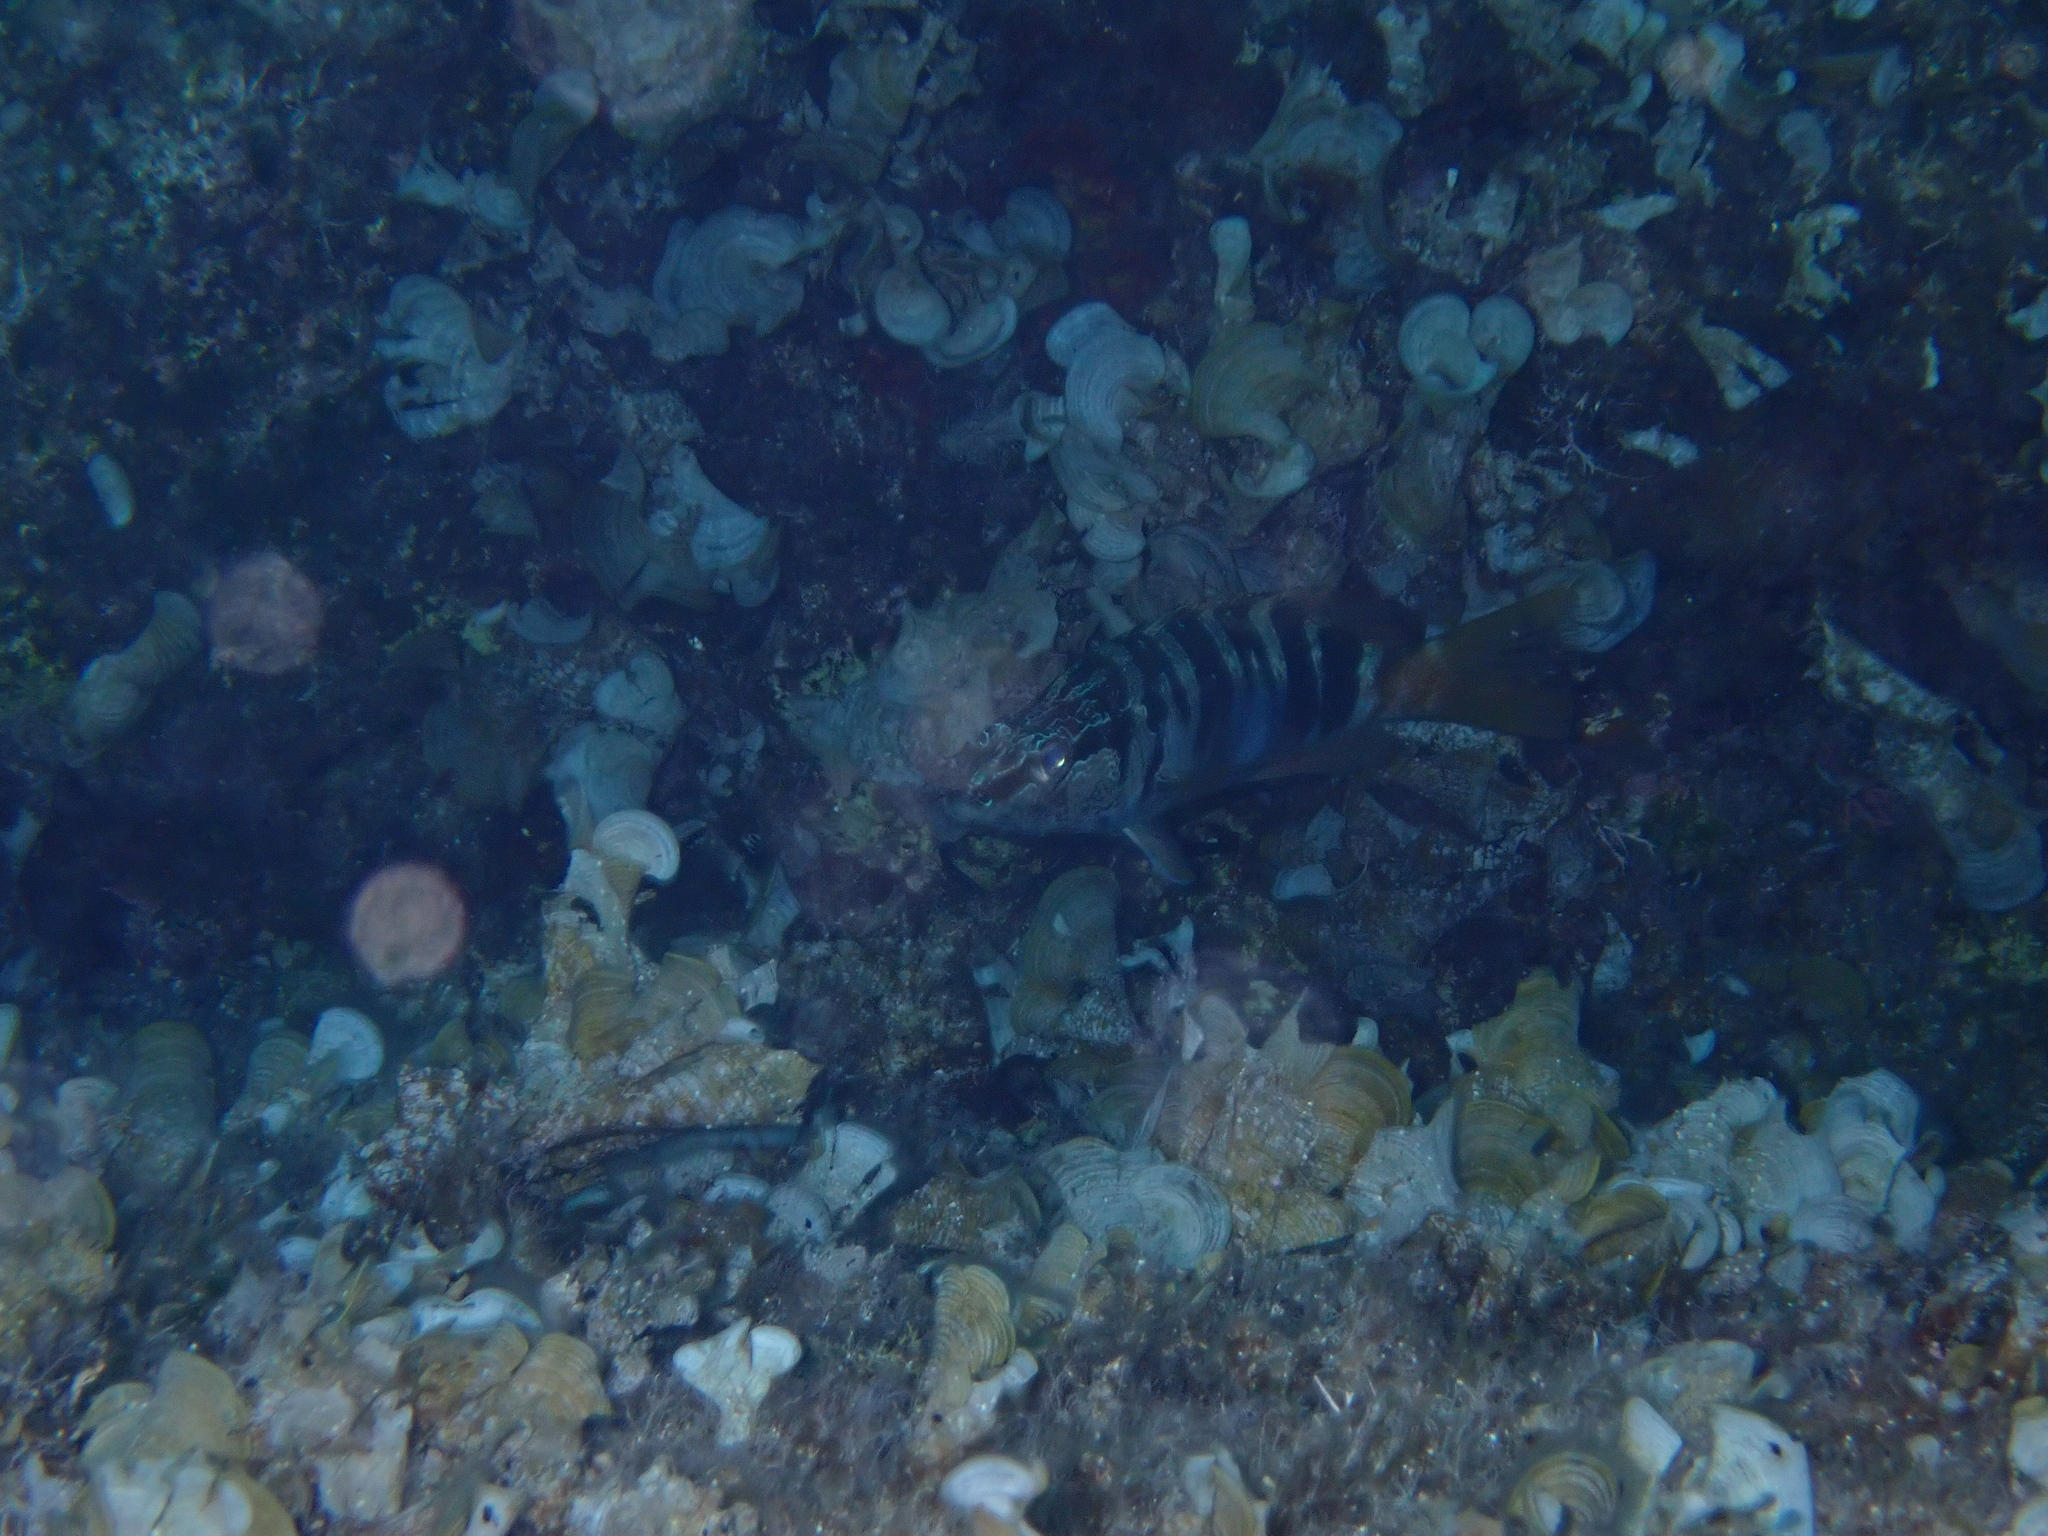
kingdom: Animalia
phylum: Chordata
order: Perciformes
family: Serranidae
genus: Serranus
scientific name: Serranus scriba
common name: Painted comber
